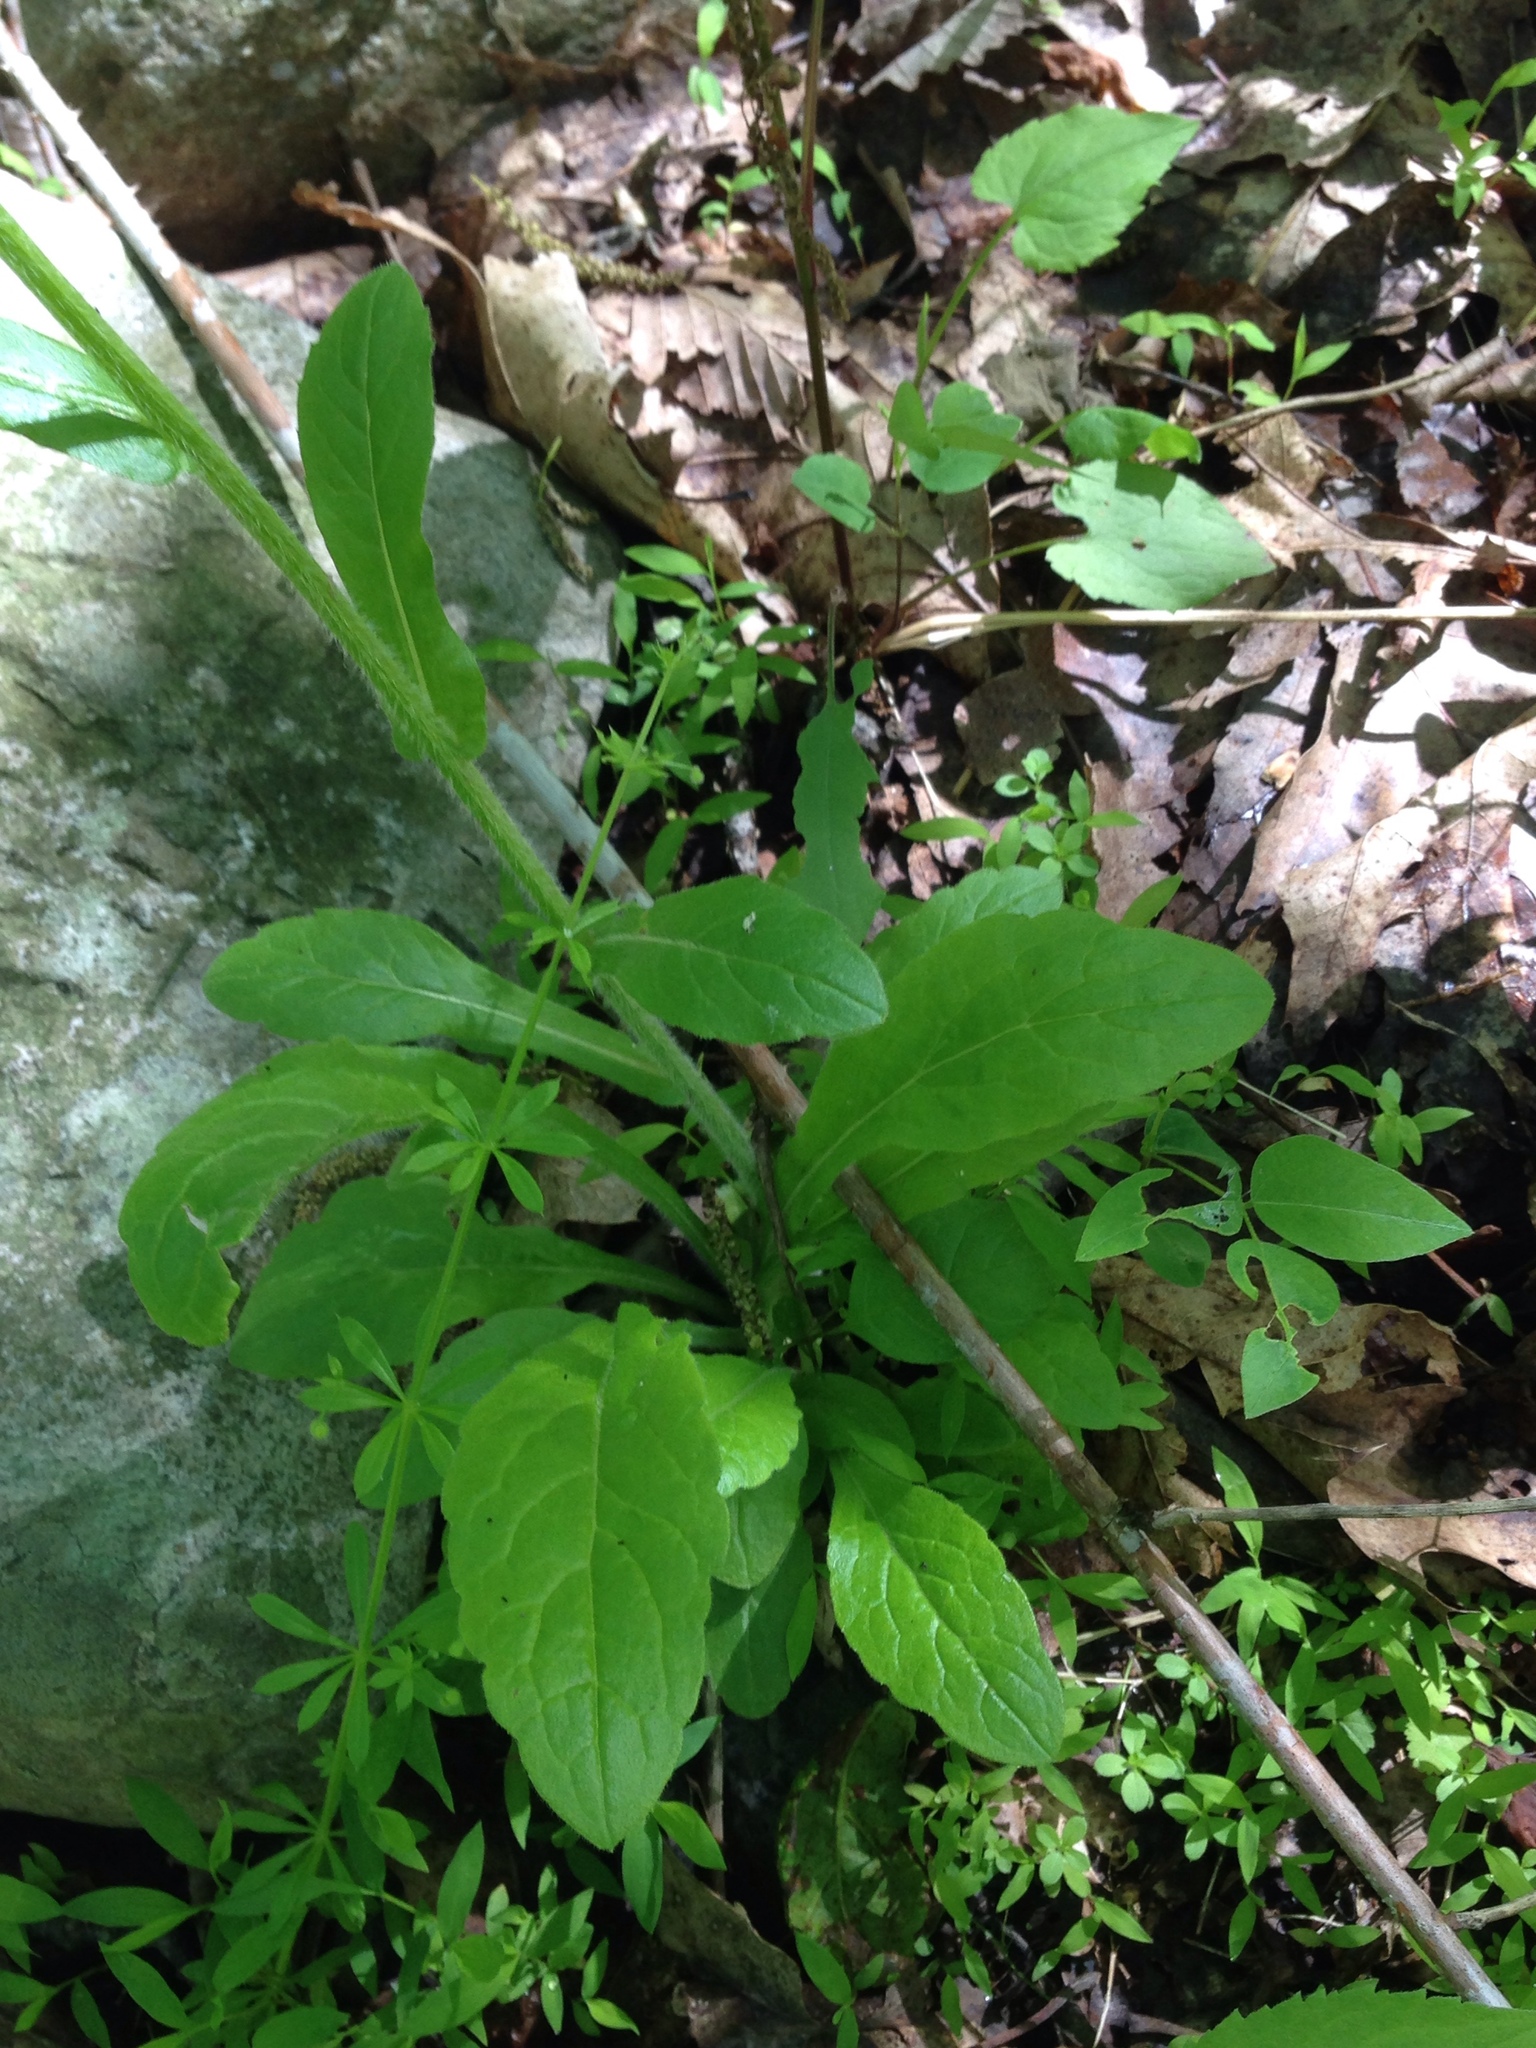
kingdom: Plantae
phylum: Tracheophyta
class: Magnoliopsida
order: Asterales
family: Asteraceae
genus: Erigeron
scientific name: Erigeron philadelphicus
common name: Robin's-plantain
